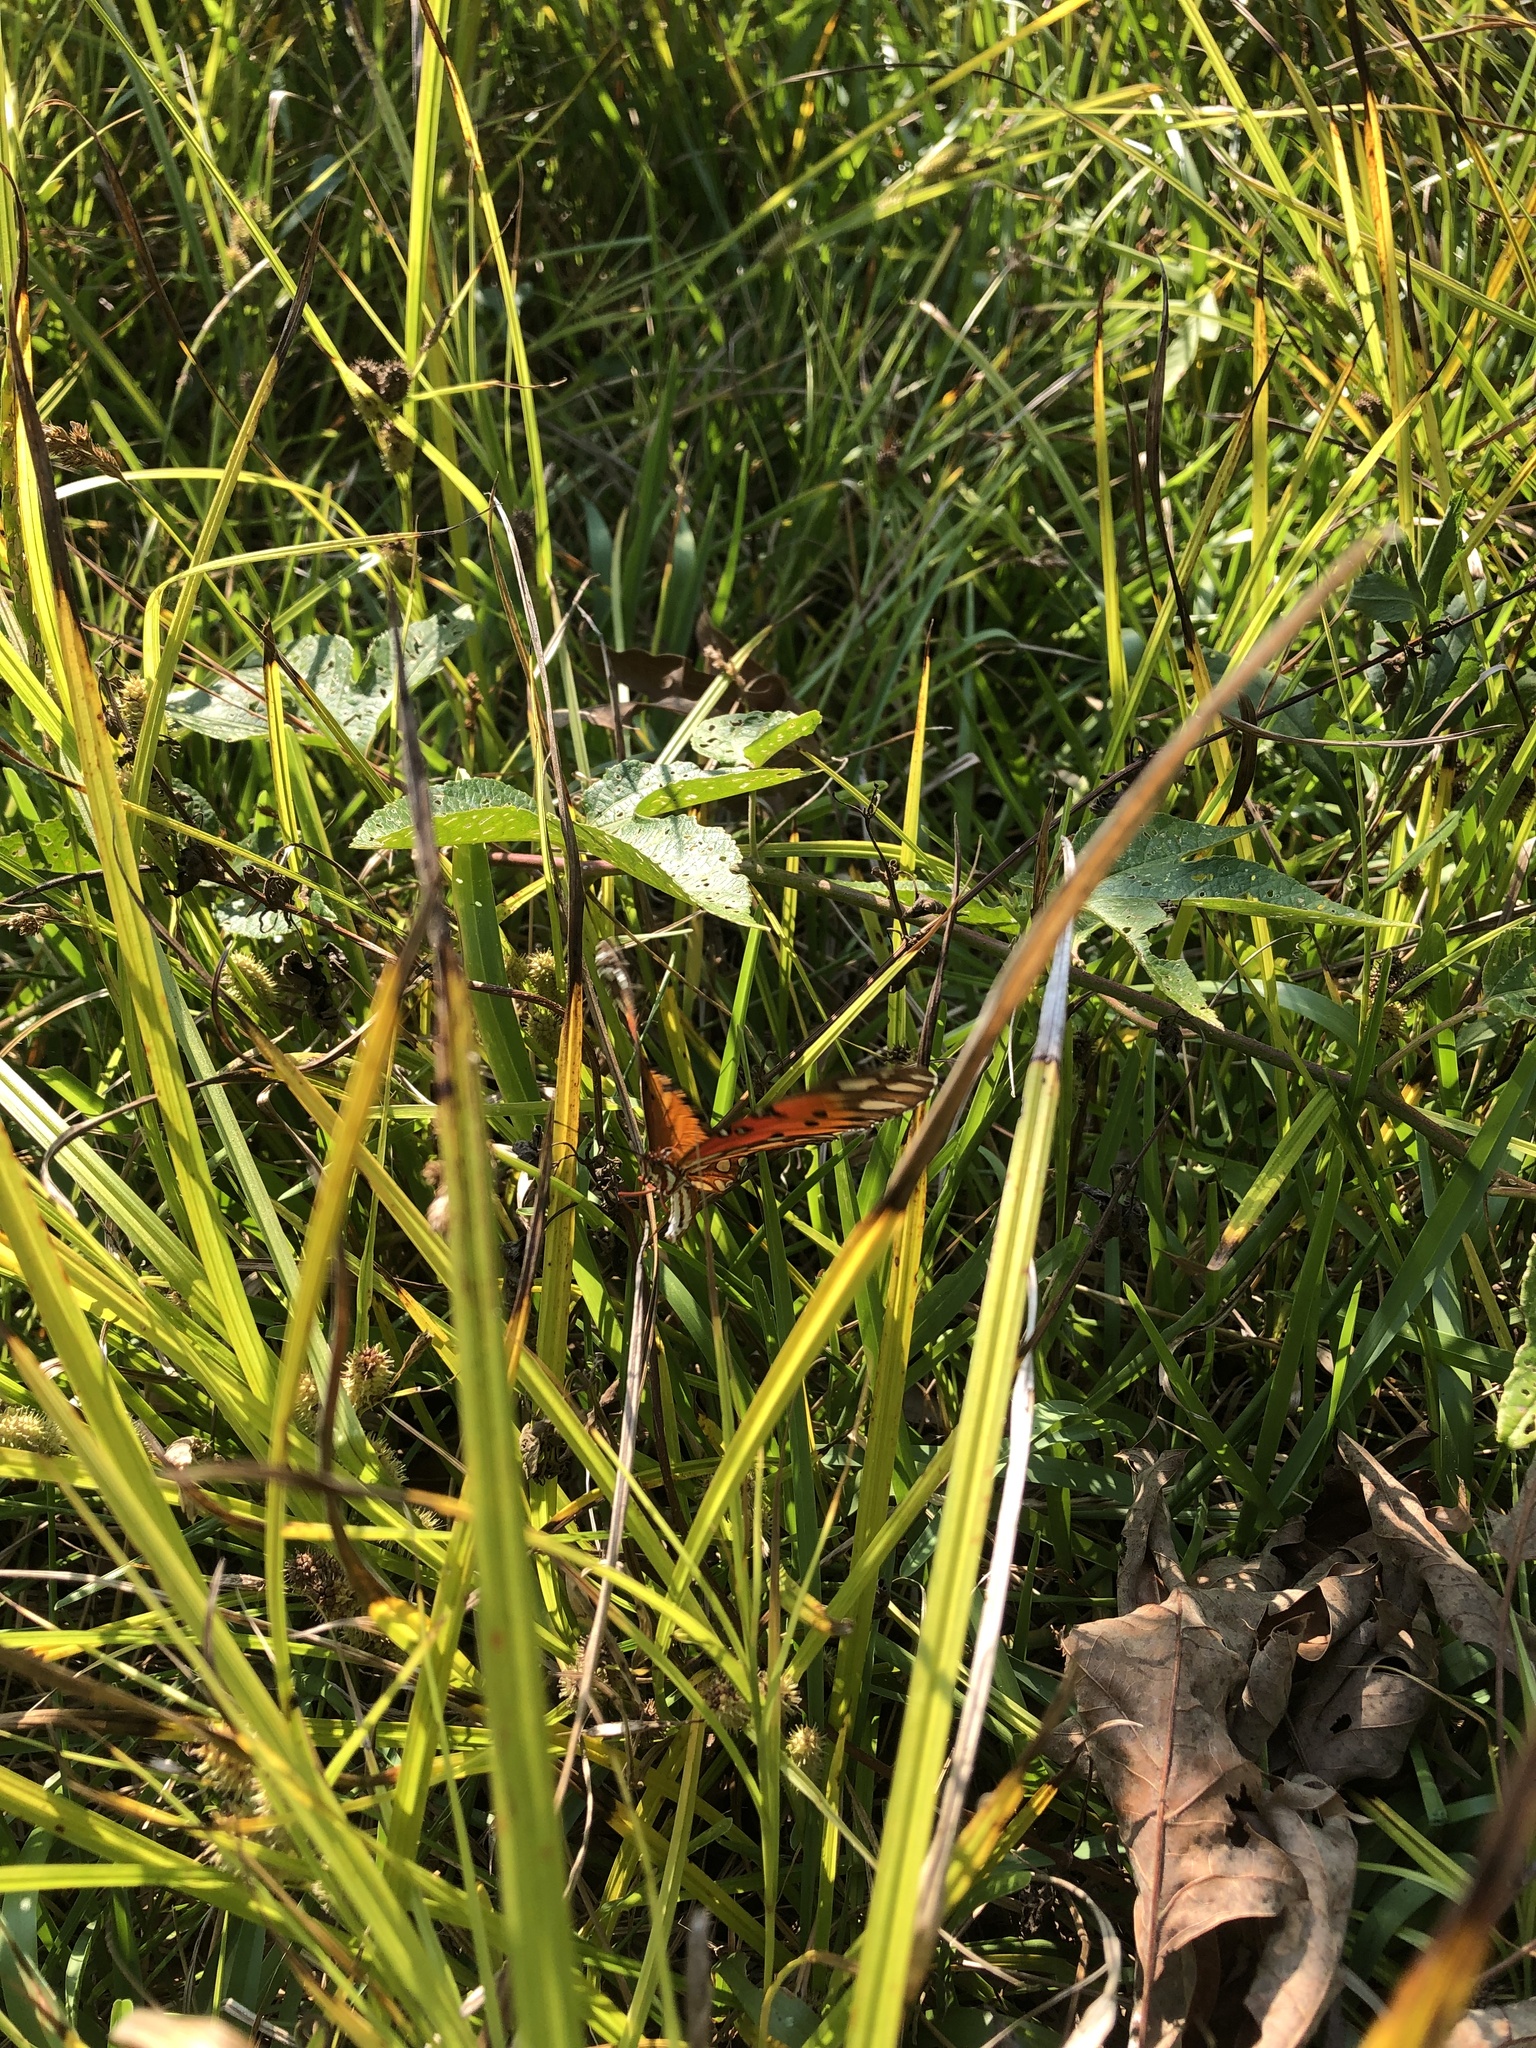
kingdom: Animalia
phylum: Arthropoda
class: Insecta
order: Lepidoptera
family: Nymphalidae
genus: Dione
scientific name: Dione vanillae
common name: Gulf fritillary
